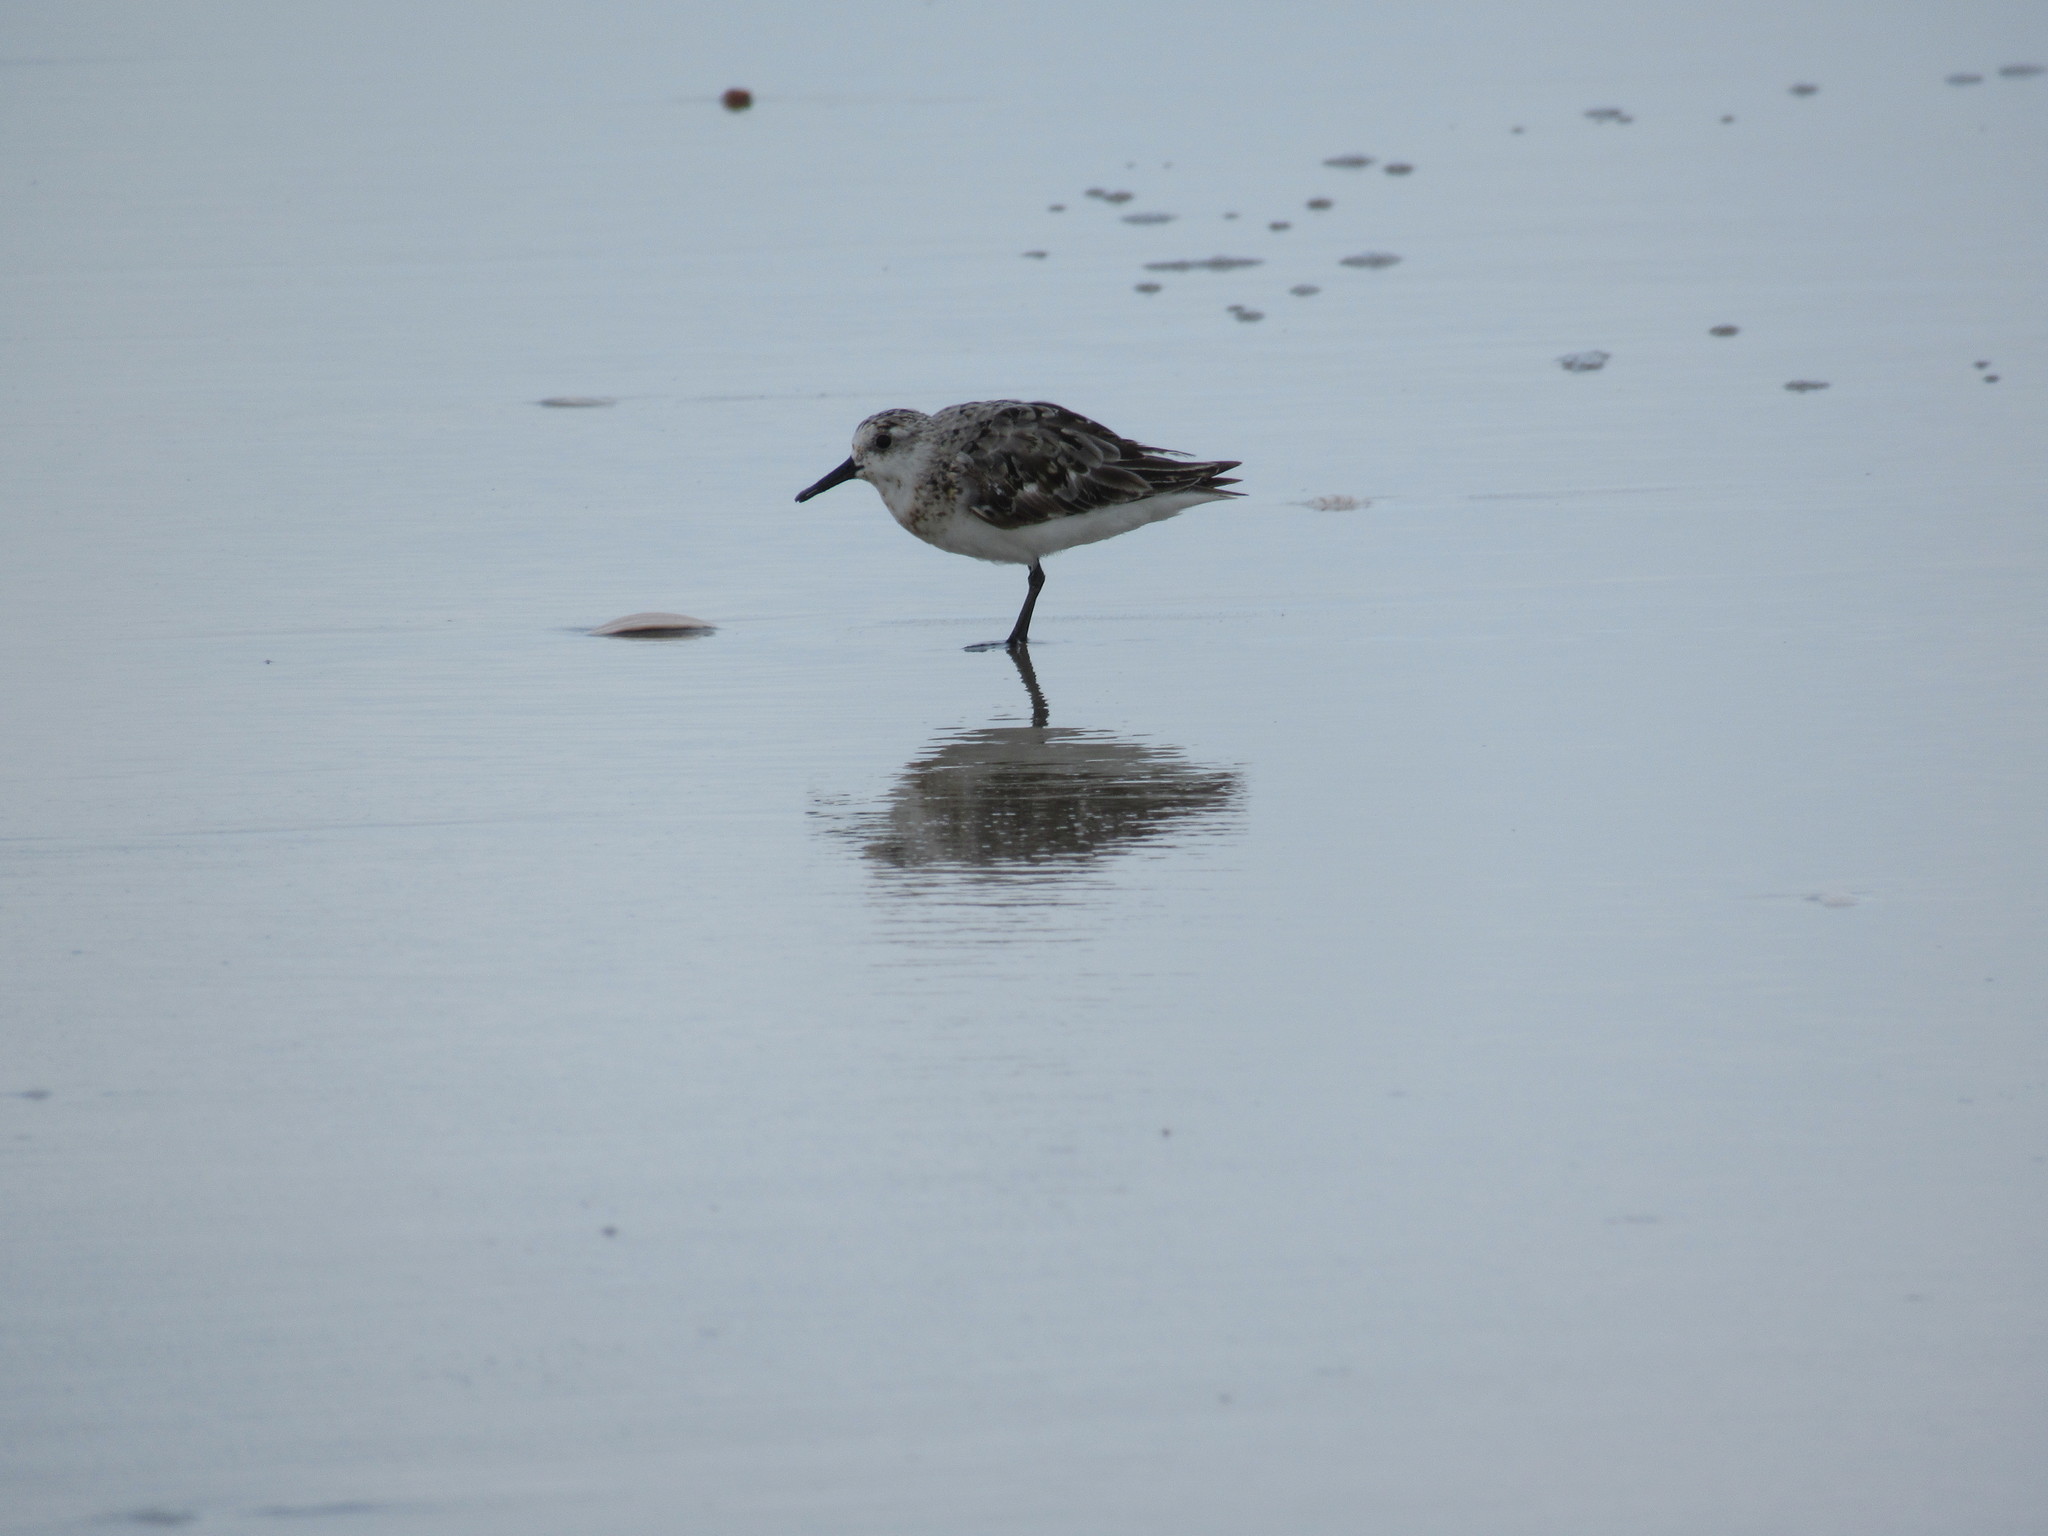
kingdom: Animalia
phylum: Chordata
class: Aves
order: Charadriiformes
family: Scolopacidae
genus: Calidris
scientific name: Calidris alba
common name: Sanderling
